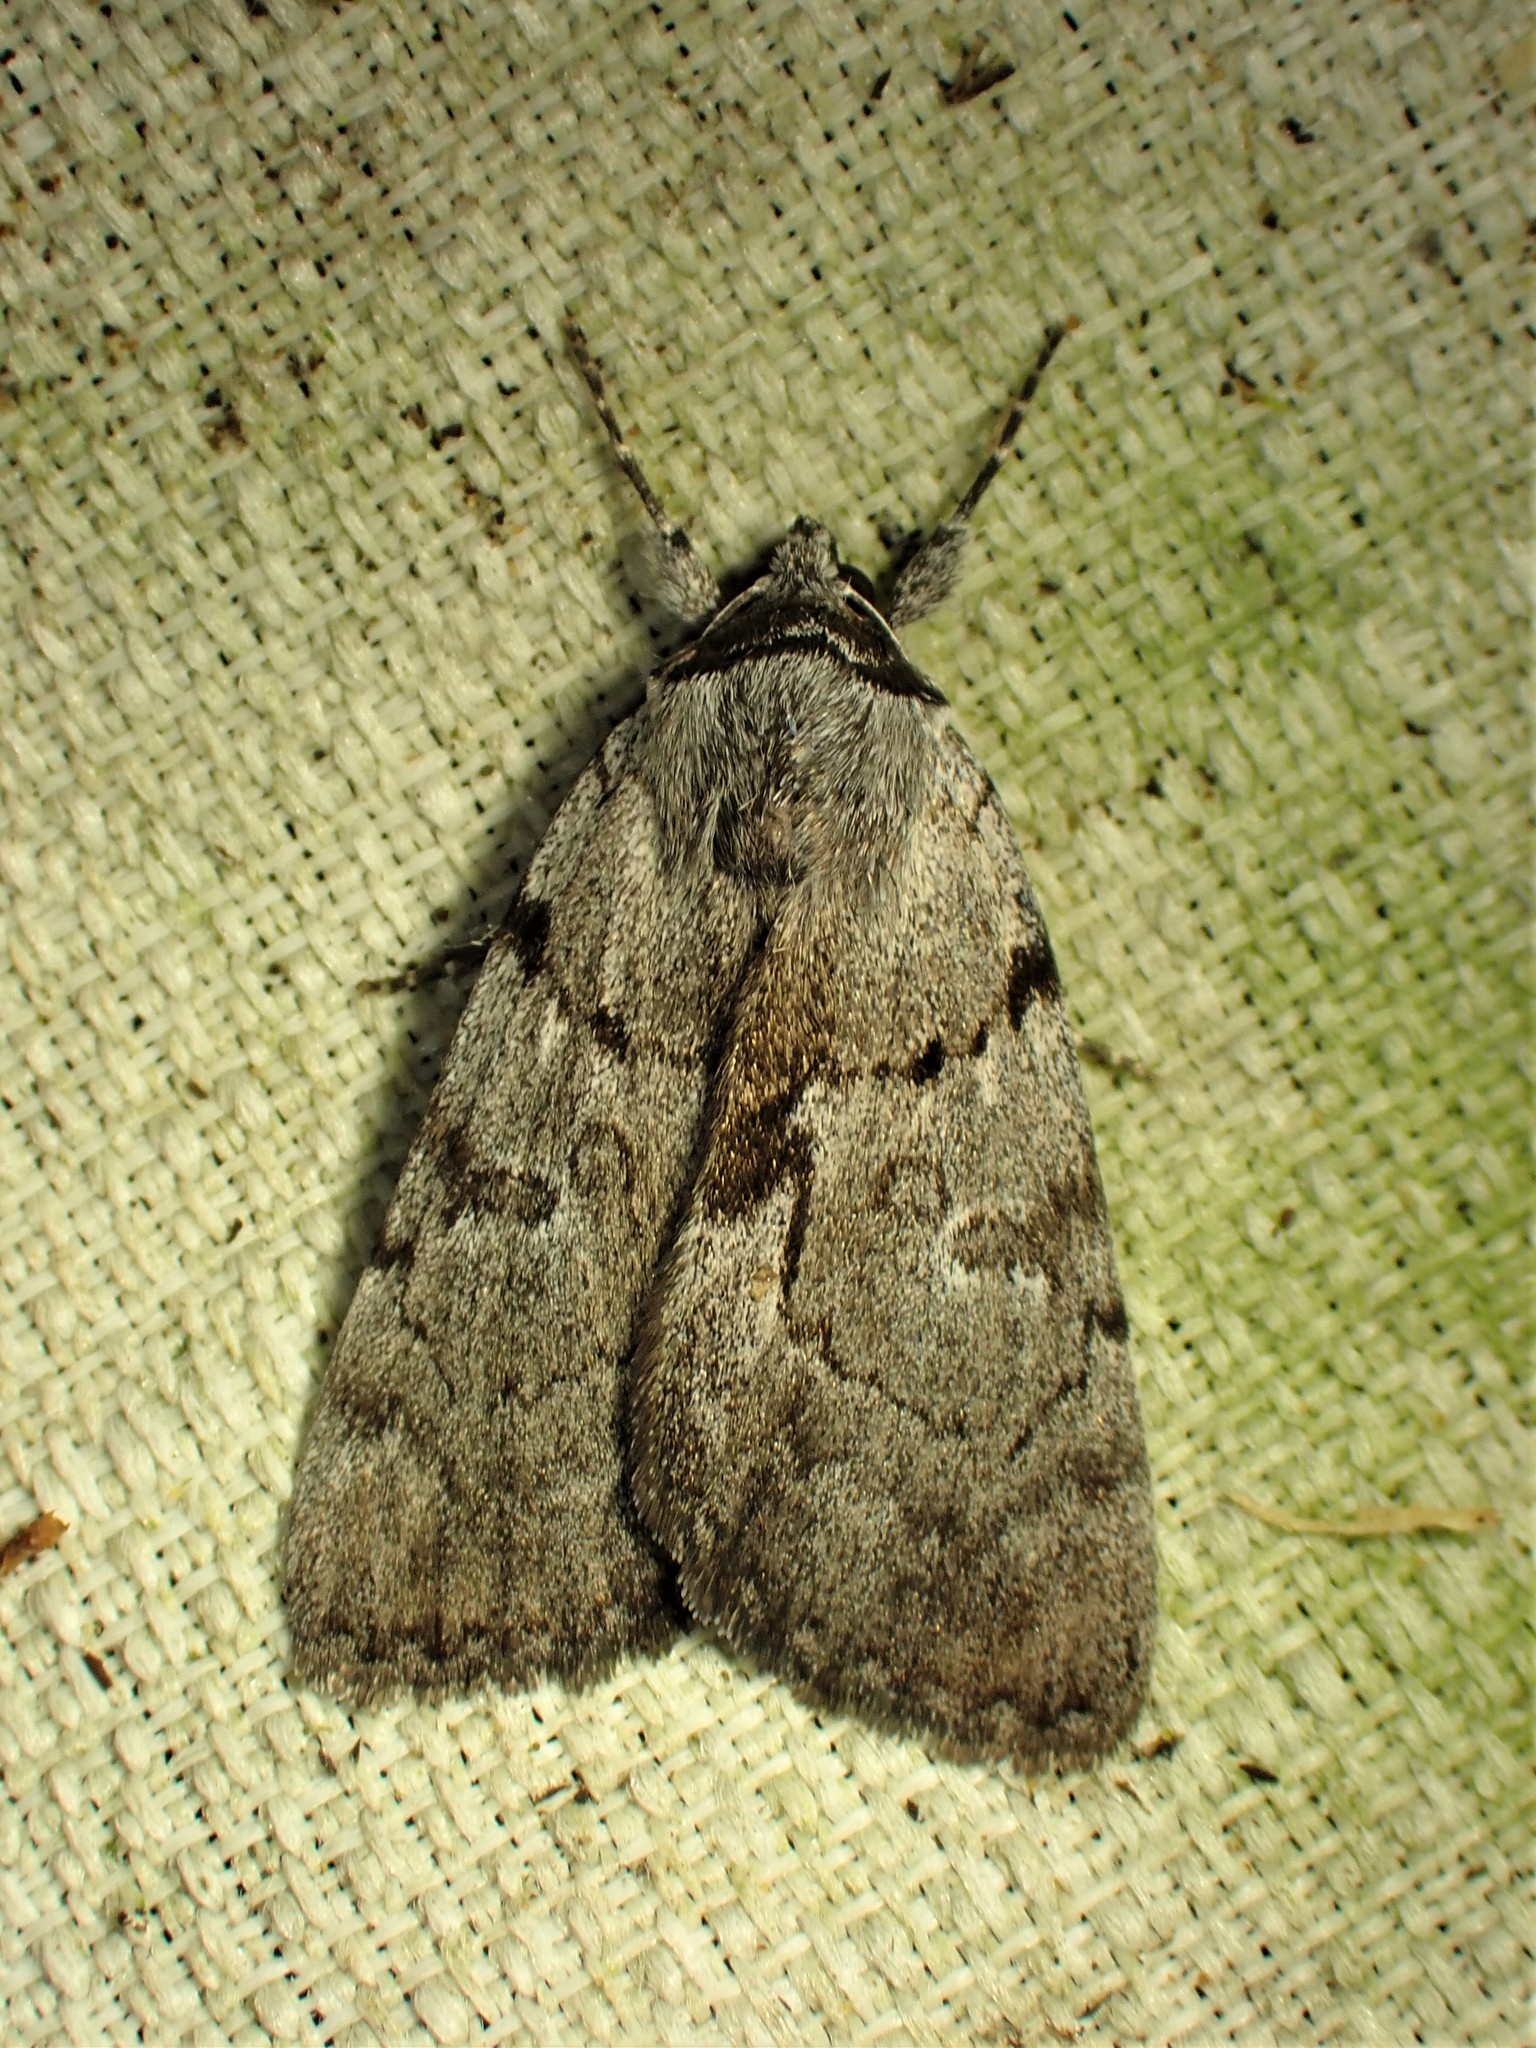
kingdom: Animalia
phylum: Arthropoda
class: Insecta
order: Lepidoptera
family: Erebidae
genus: Catocala
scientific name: Catocala sordida
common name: Sordid underwing
